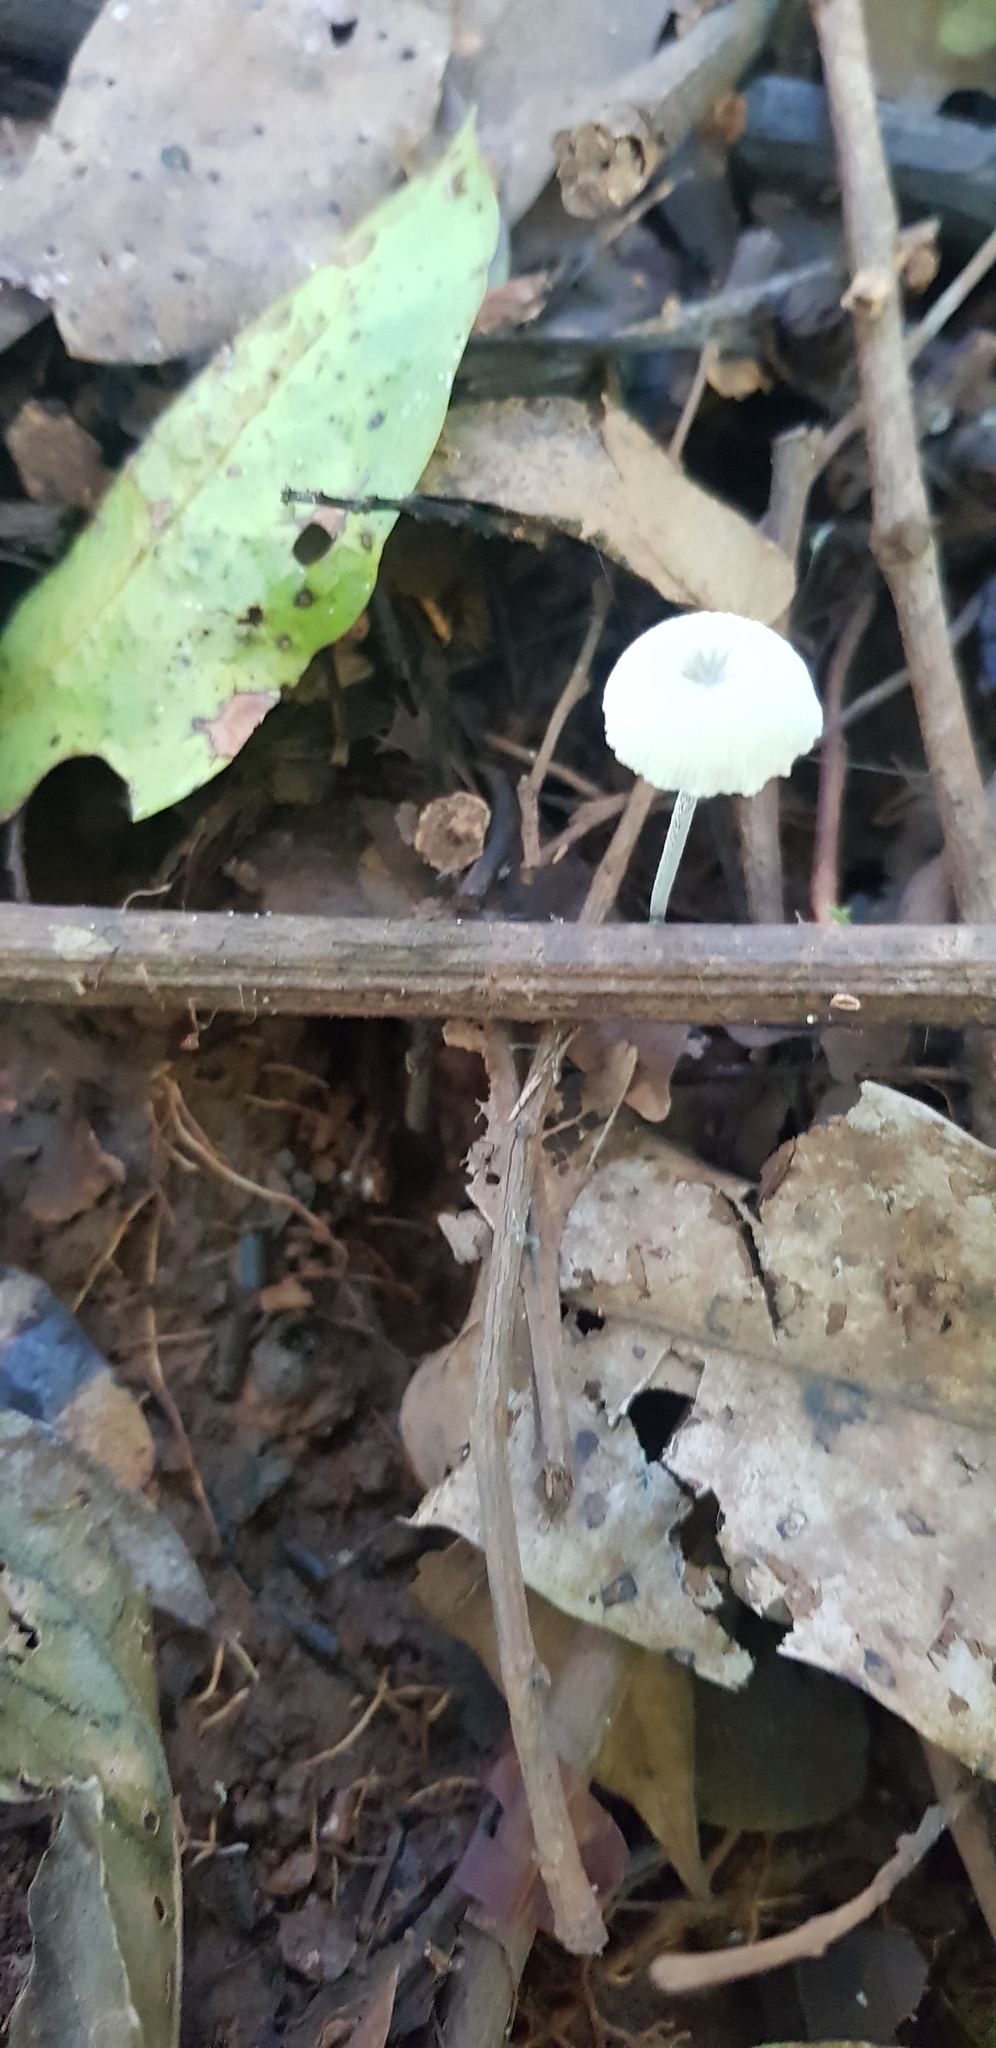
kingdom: Fungi
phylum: Basidiomycota
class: Agaricomycetes
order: Agaricales
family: Marasmiaceae
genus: Tetrapyrgos
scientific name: Tetrapyrgos nigripes
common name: Black-stalked marasmius
